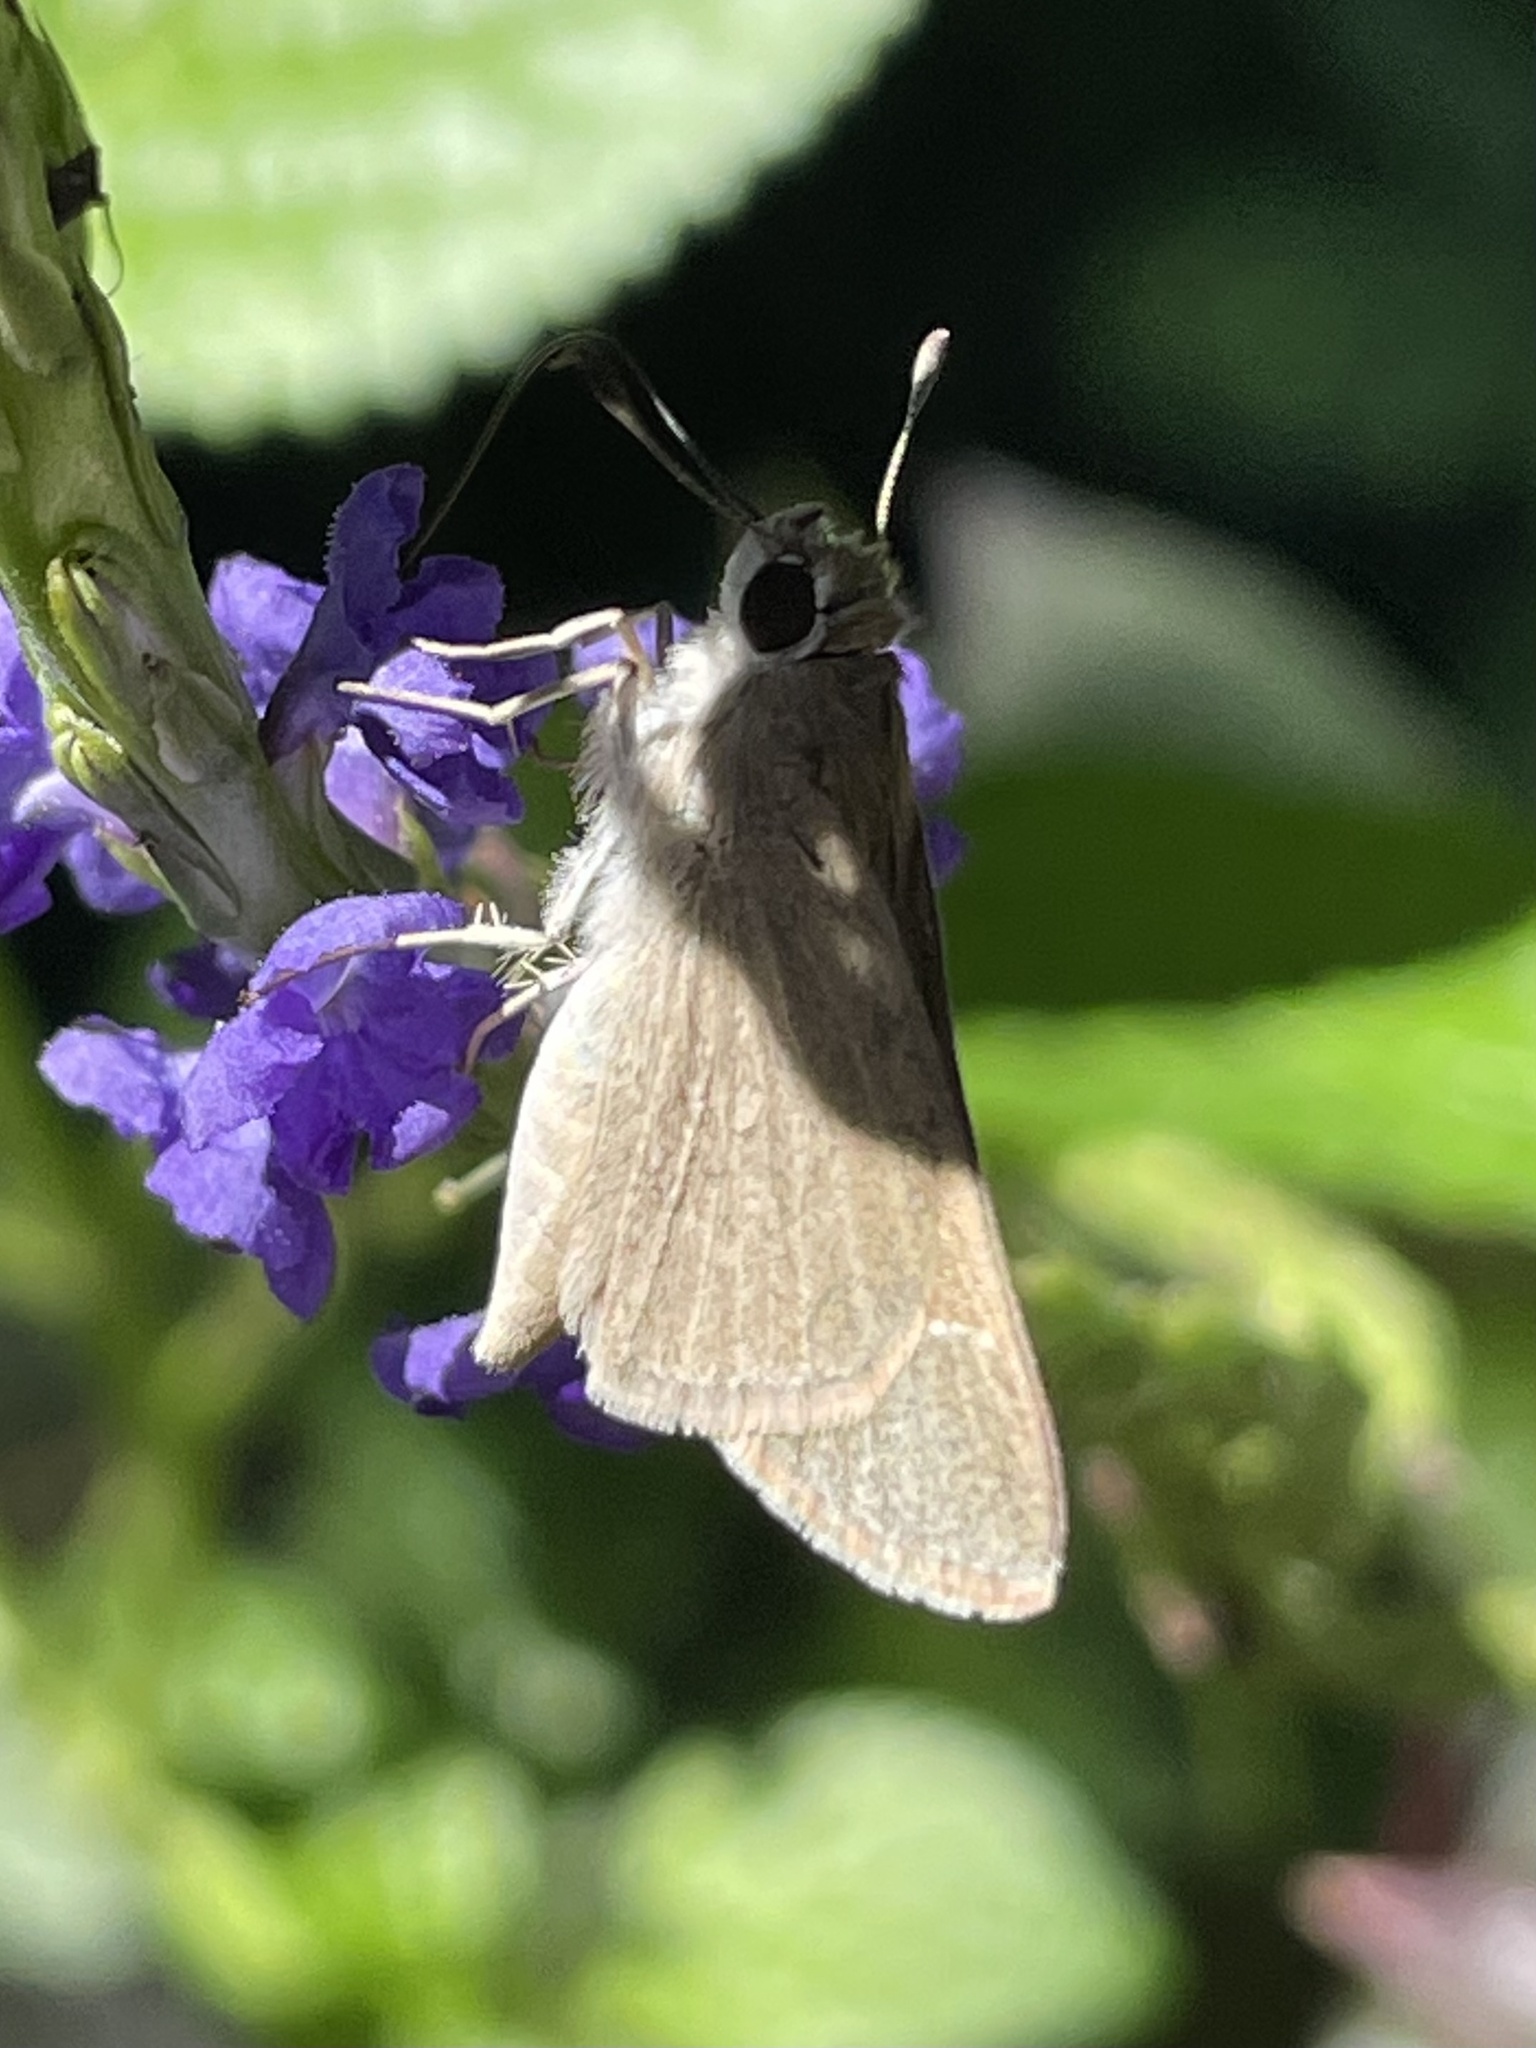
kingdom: Animalia
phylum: Arthropoda
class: Insecta
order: Lepidoptera
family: Hesperiidae
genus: Lerodea
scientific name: Lerodea eufala
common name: Eufala skipper
